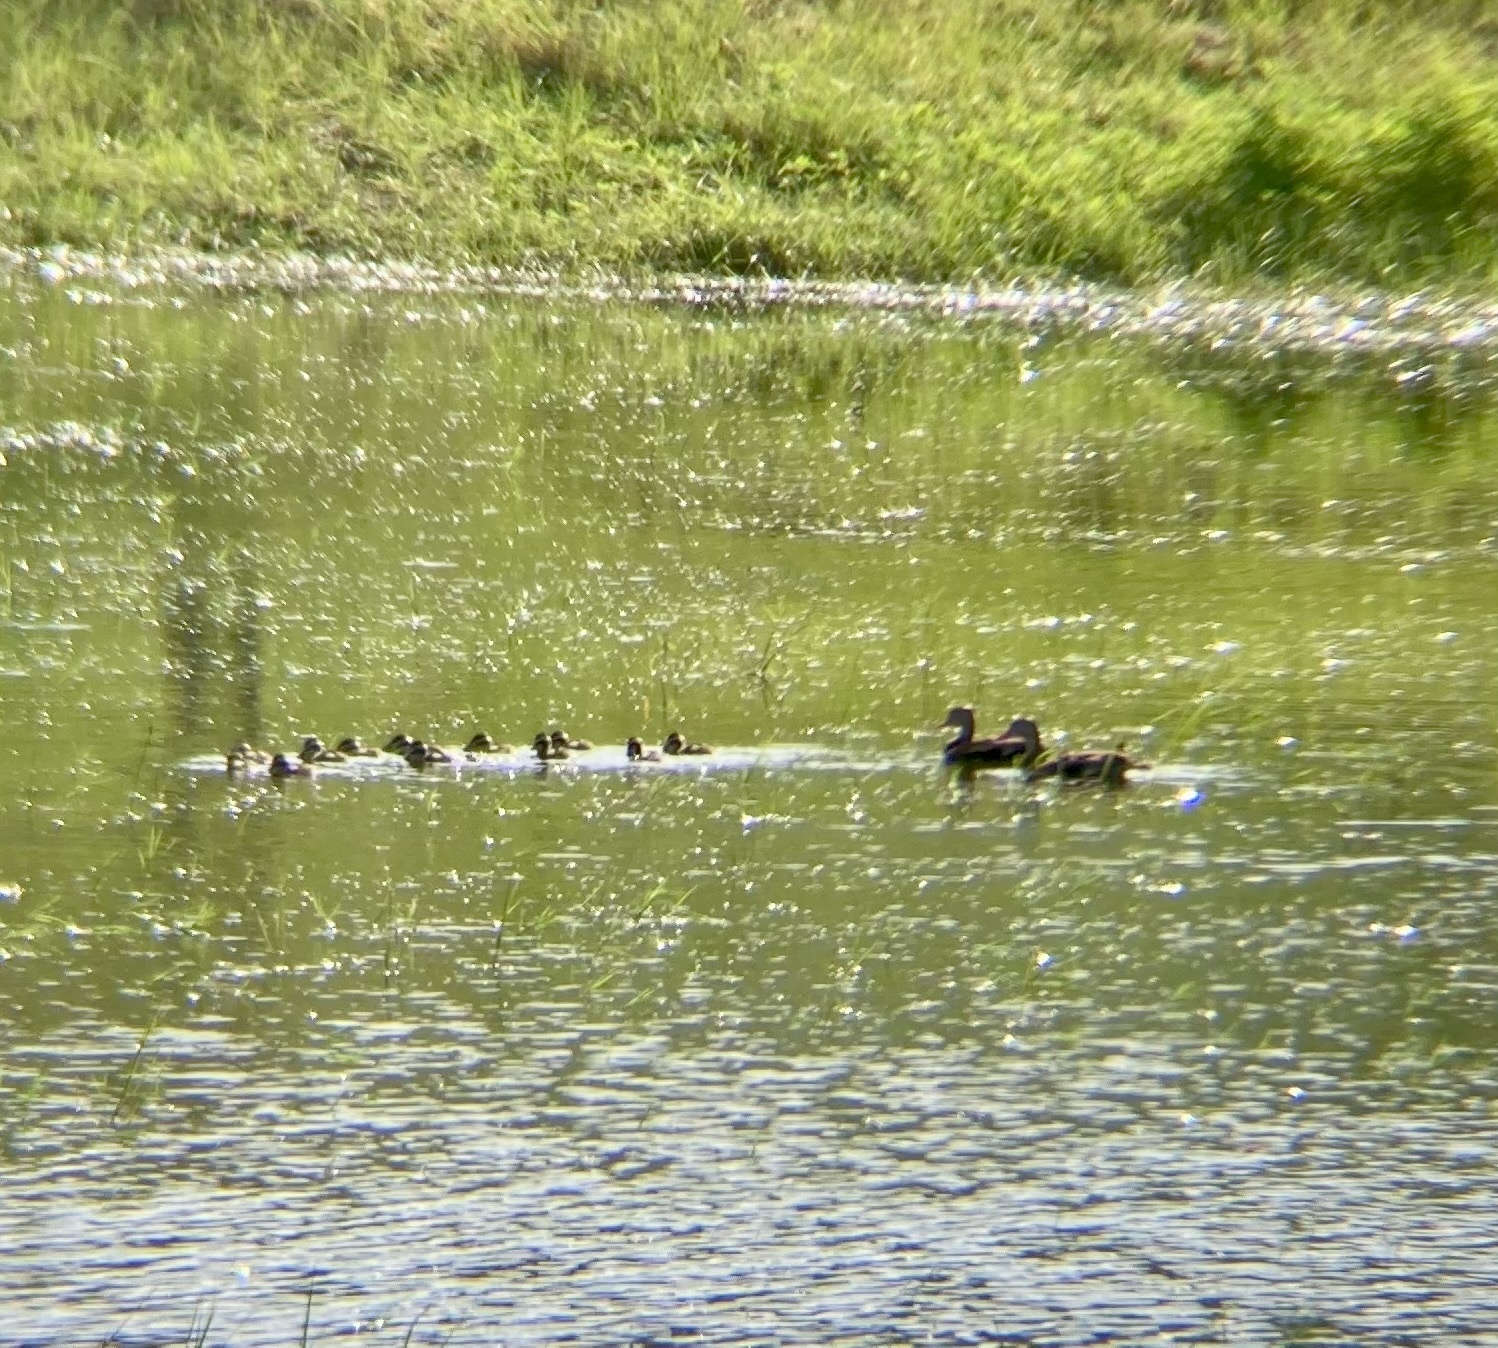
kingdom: Animalia
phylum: Chordata
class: Aves
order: Anseriformes
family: Anatidae
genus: Dendrocygna
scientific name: Dendrocygna autumnalis
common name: Black-bellied whistling duck
